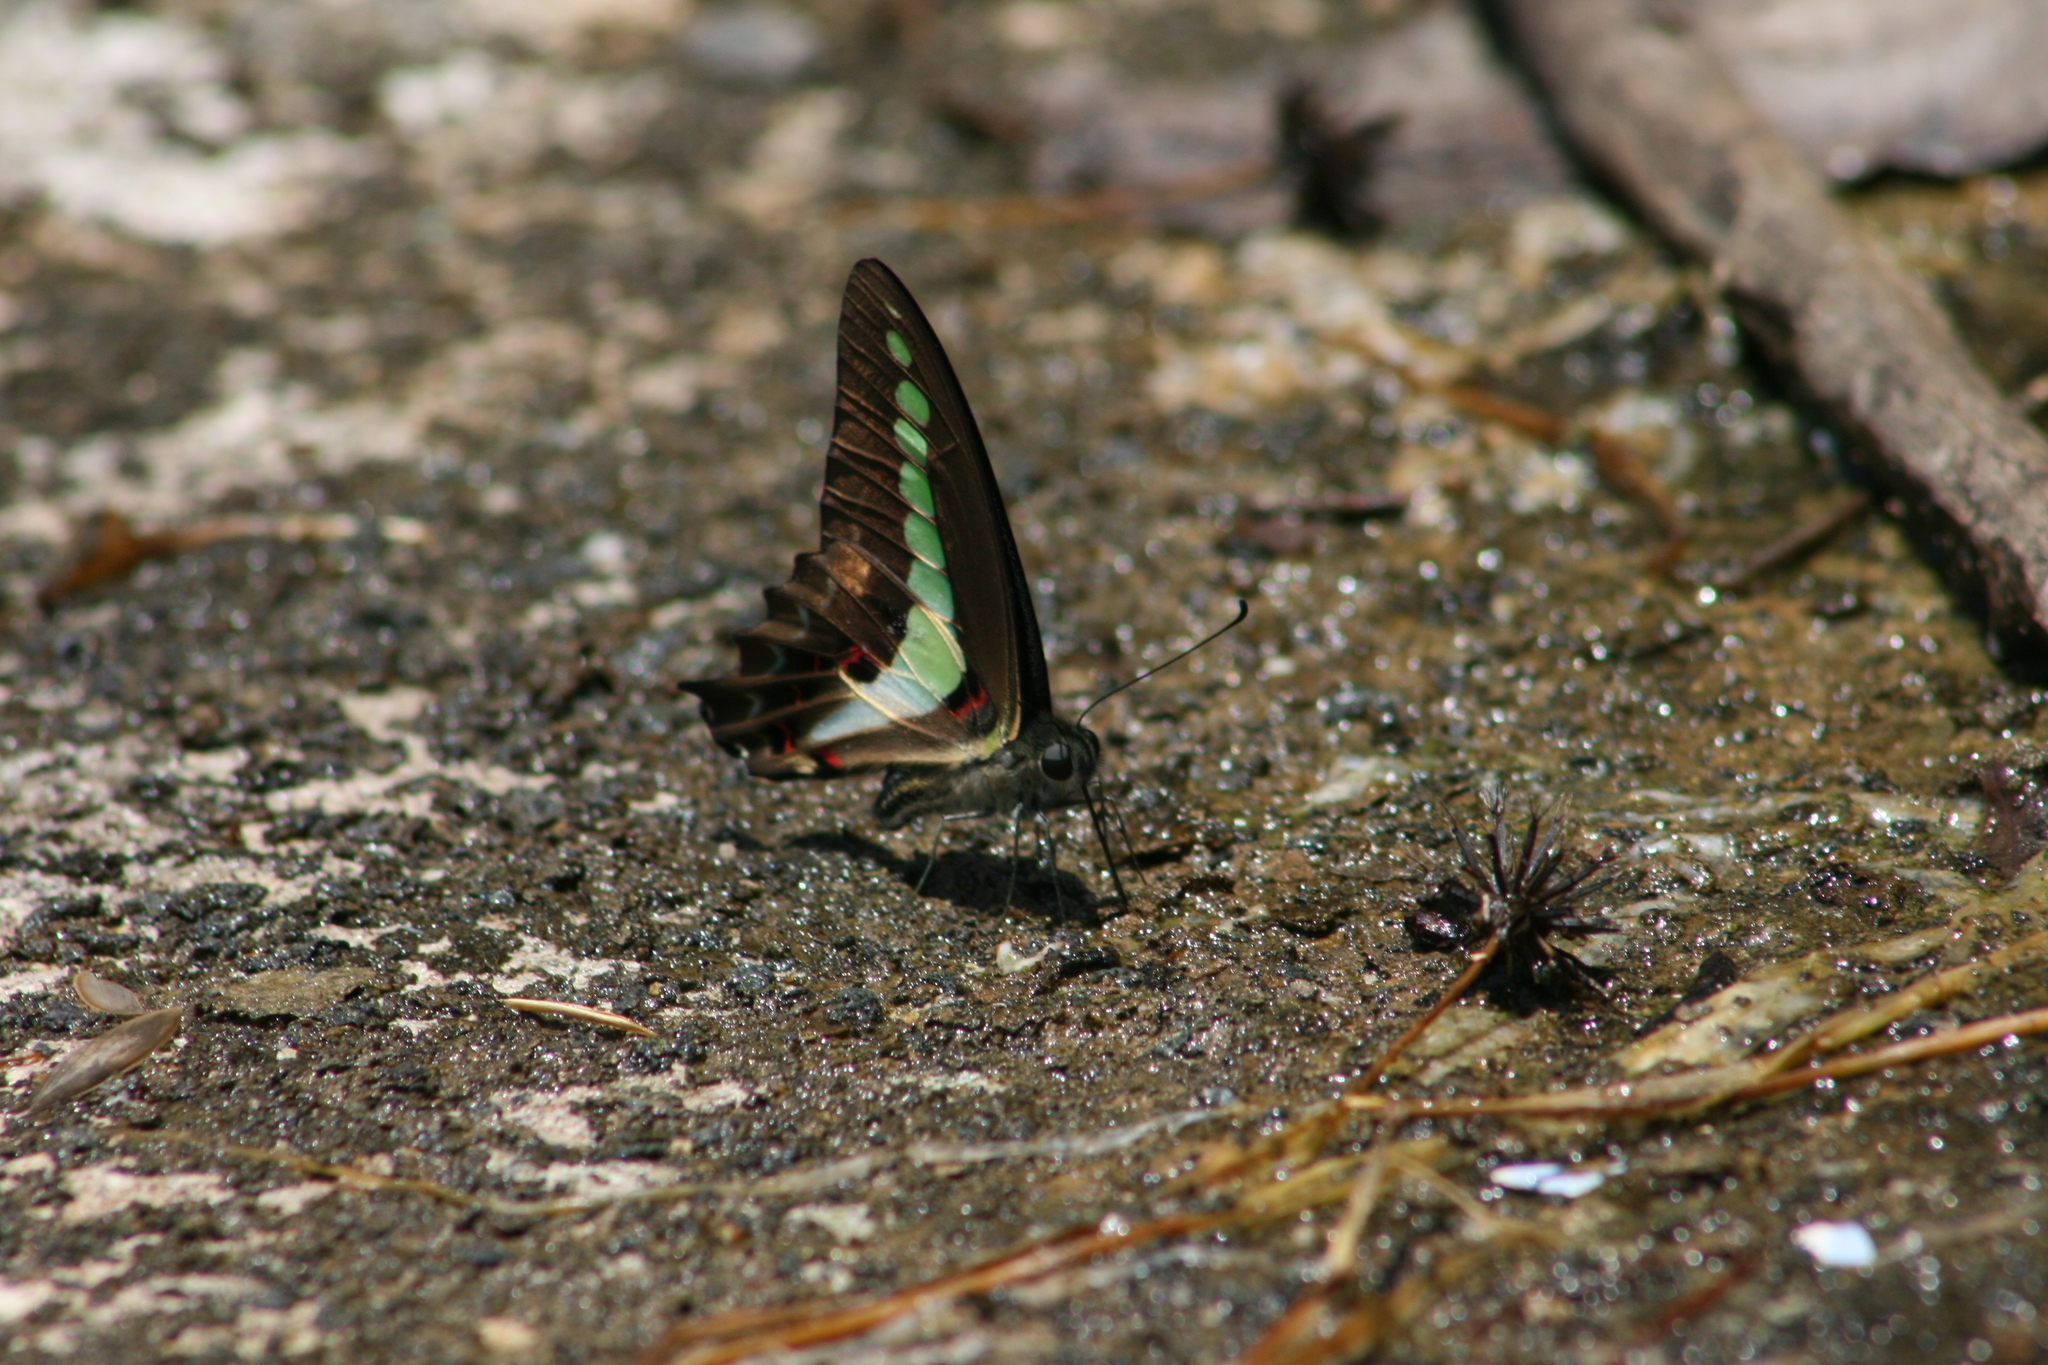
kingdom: Animalia
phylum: Arthropoda
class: Insecta
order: Lepidoptera
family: Papilionidae
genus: Graphium
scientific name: Graphium
